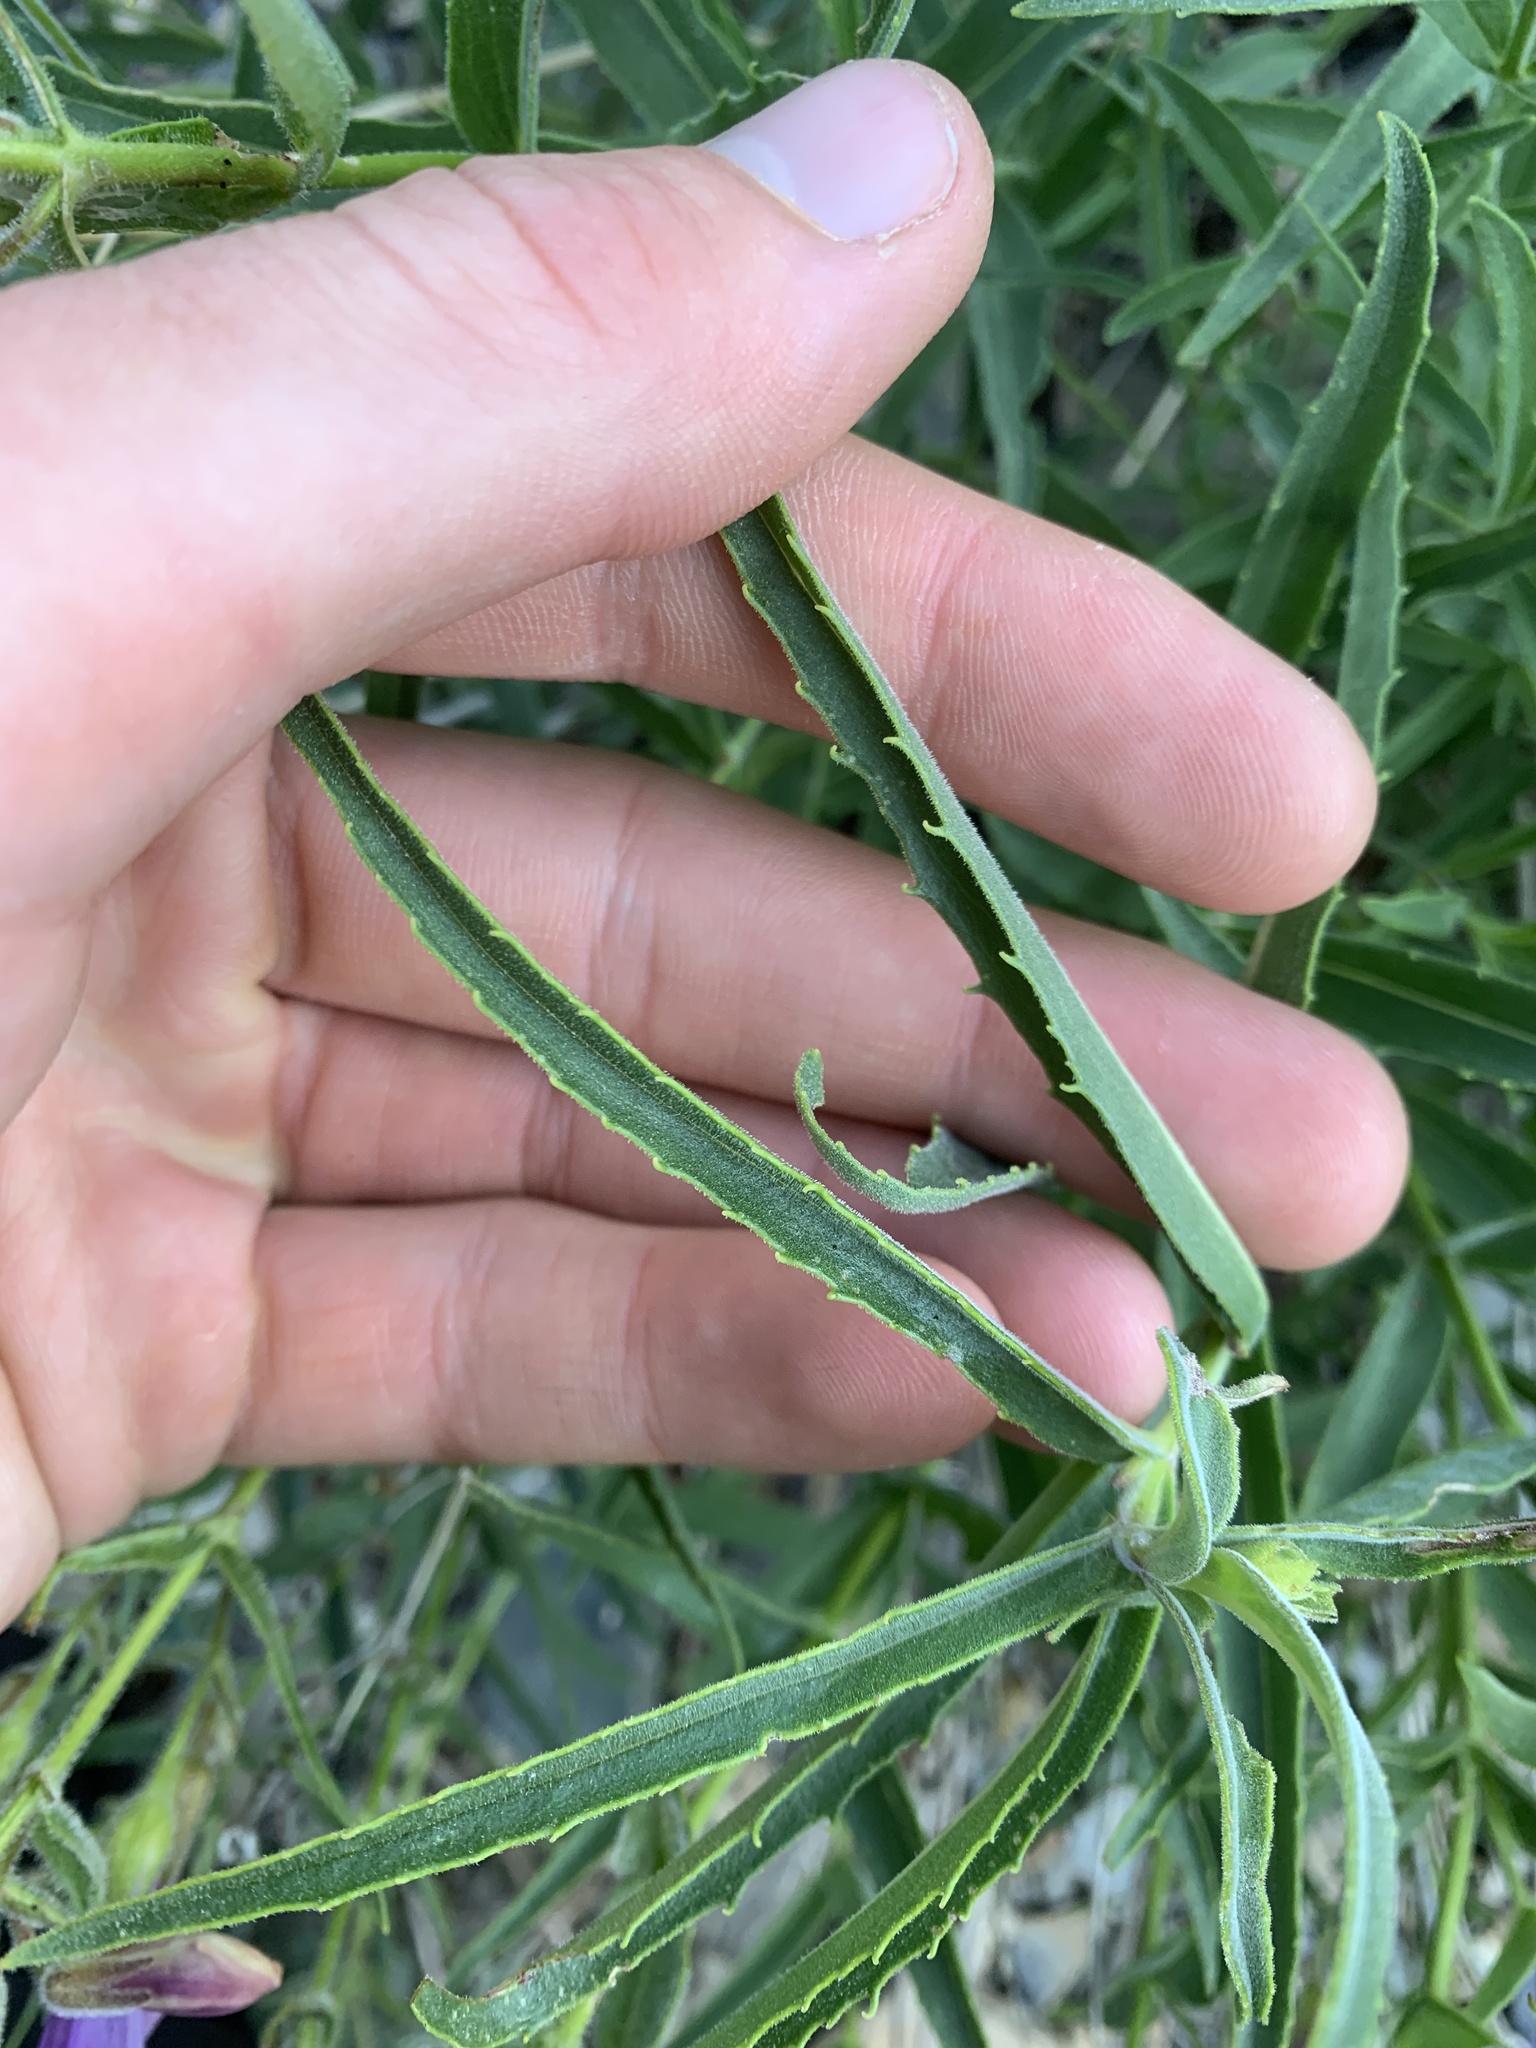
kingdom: Plantae
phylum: Tracheophyta
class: Magnoliopsida
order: Lamiales
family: Plantaginaceae
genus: Penstemon
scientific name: Penstemon lyalli
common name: Lyall's beardtongue
